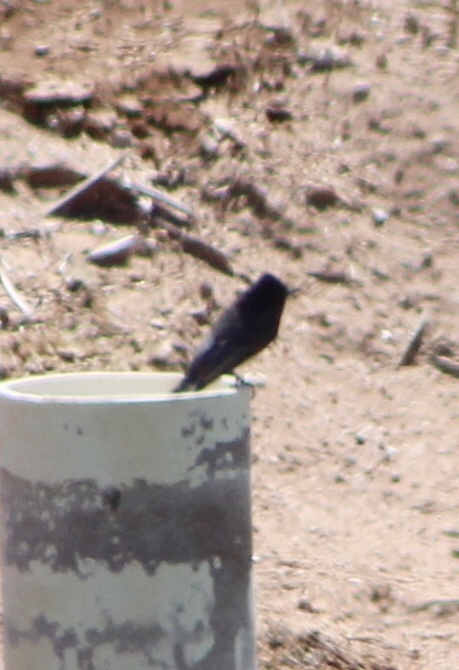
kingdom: Animalia
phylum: Chordata
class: Aves
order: Passeriformes
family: Tyrannidae
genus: Sayornis
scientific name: Sayornis nigricans
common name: Black phoebe
